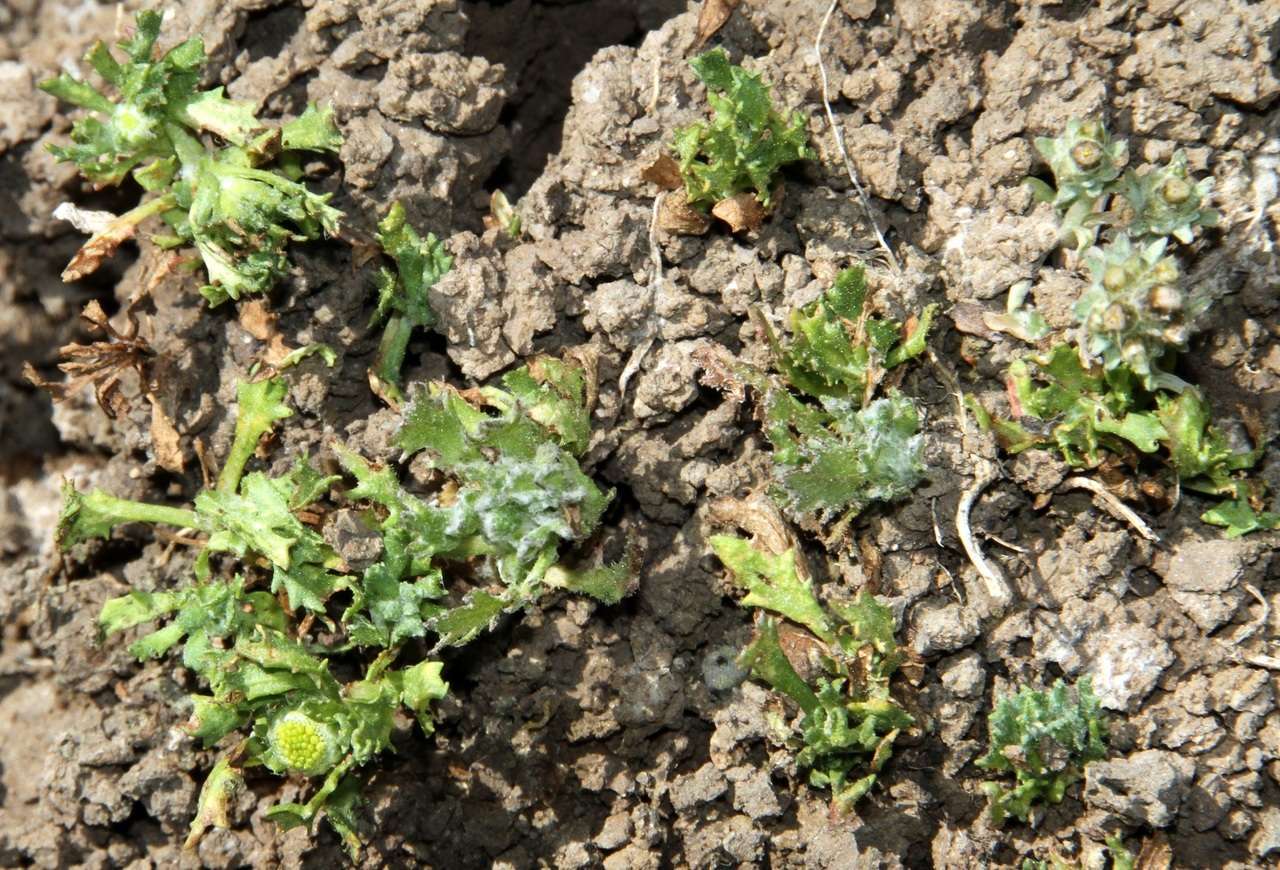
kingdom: Plantae
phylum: Tracheophyta
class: Magnoliopsida
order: Asterales
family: Asteraceae
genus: Centipeda
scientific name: Centipeda nidiformis
